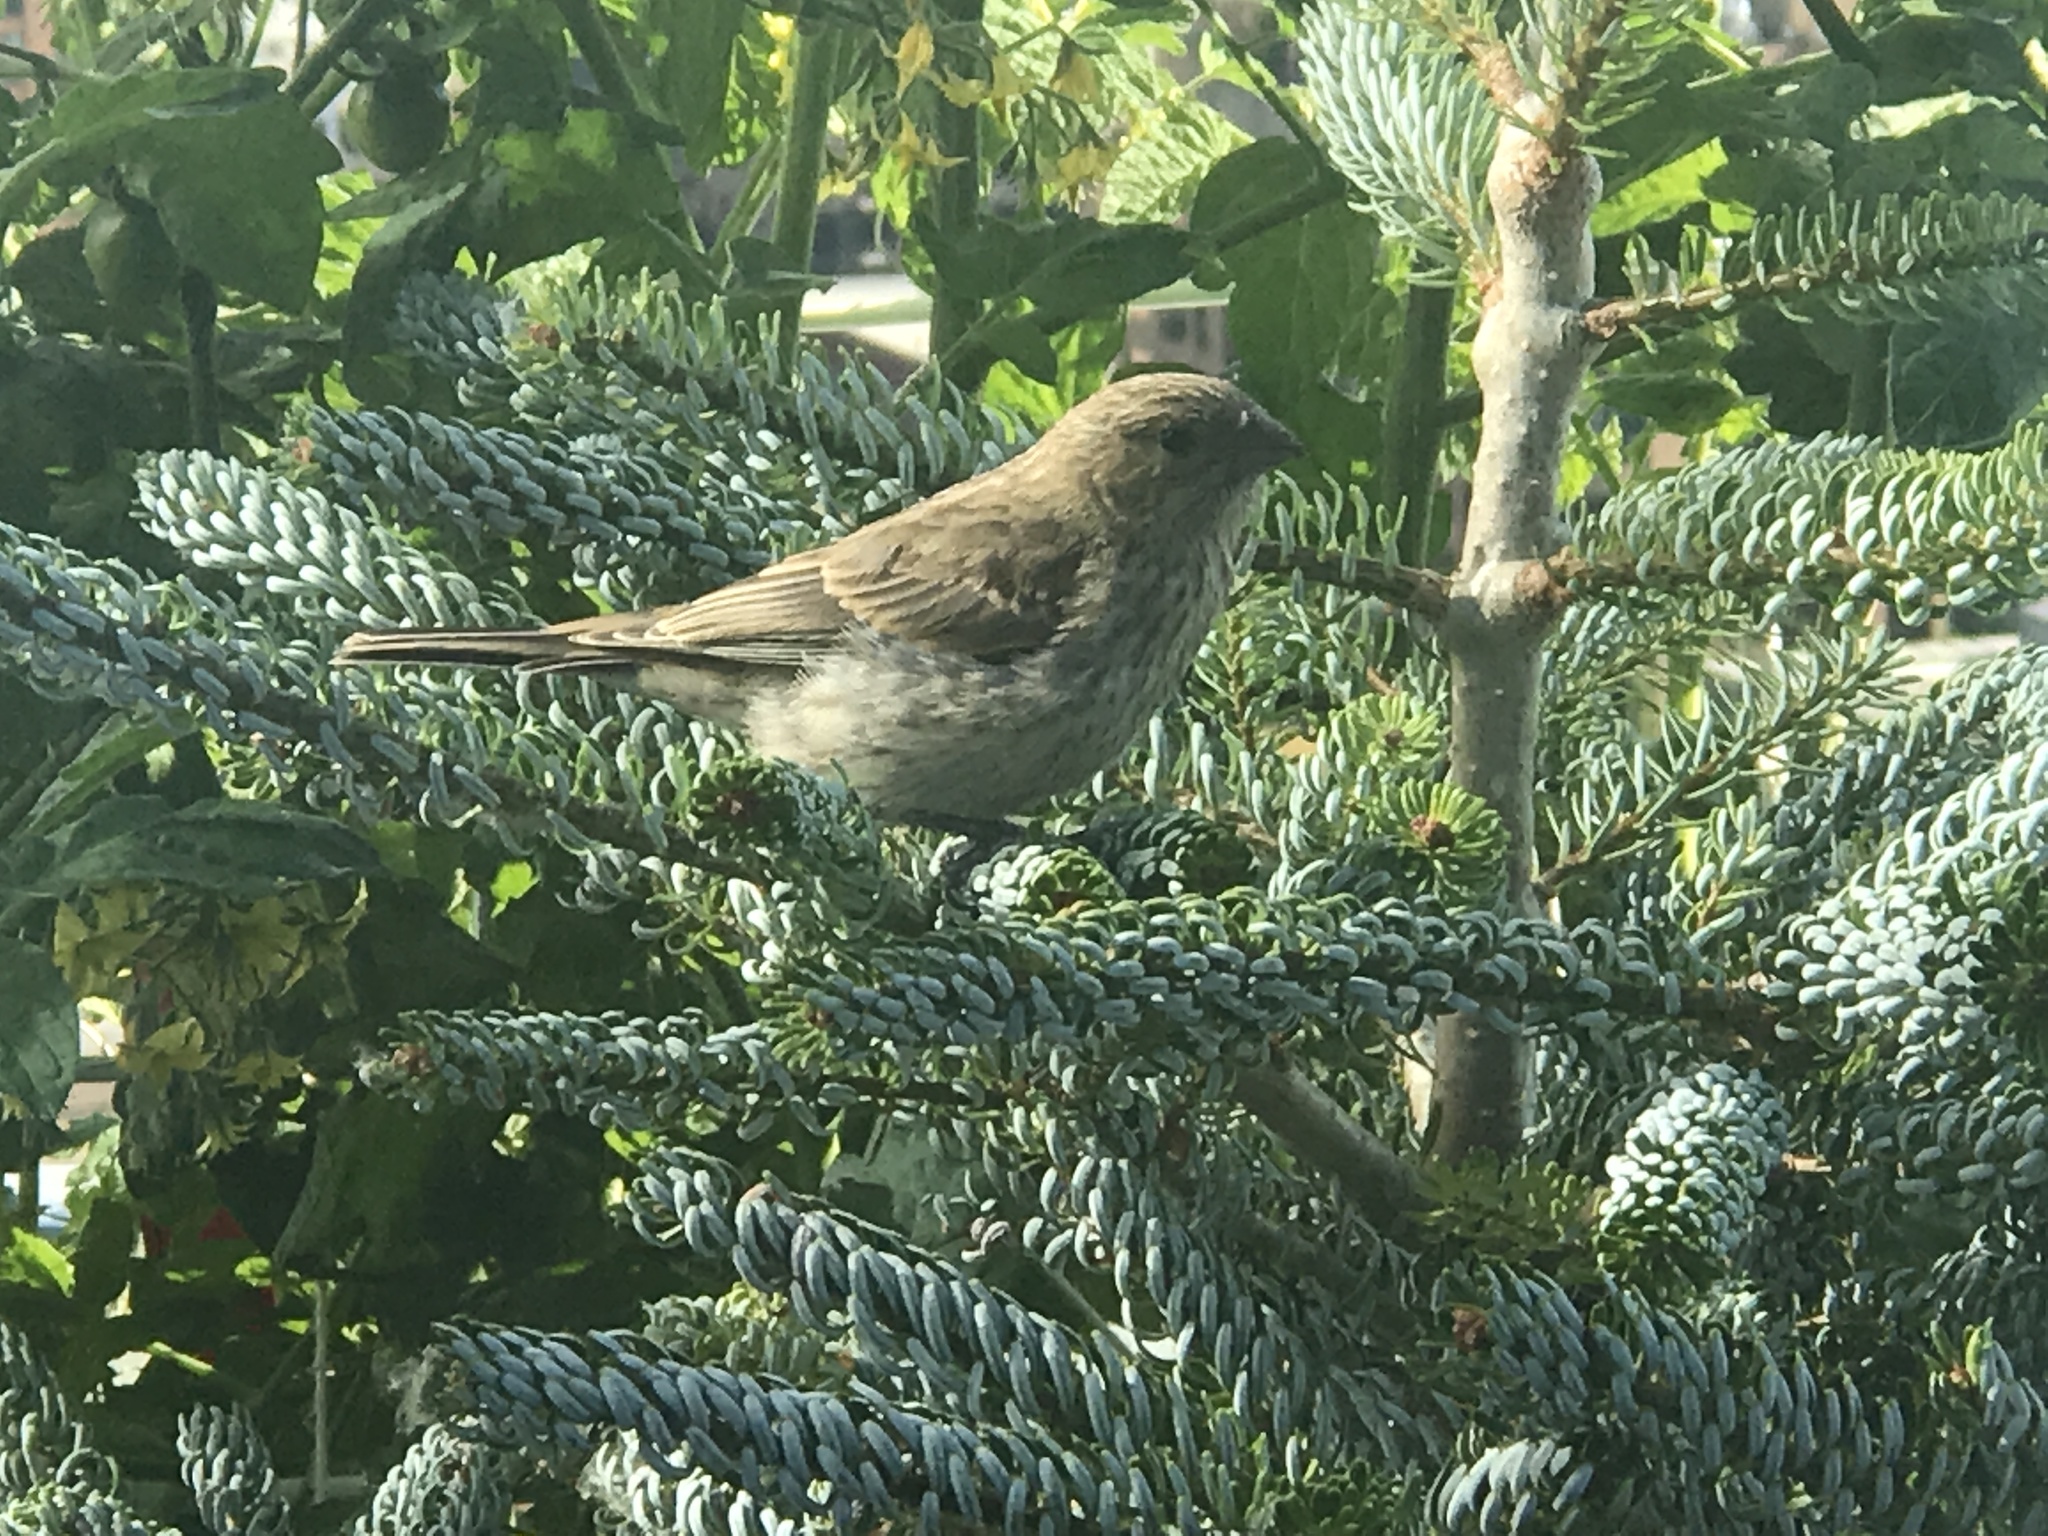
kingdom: Animalia
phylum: Chordata
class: Aves
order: Passeriformes
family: Fringillidae
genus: Haemorhous
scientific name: Haemorhous mexicanus
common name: House finch
